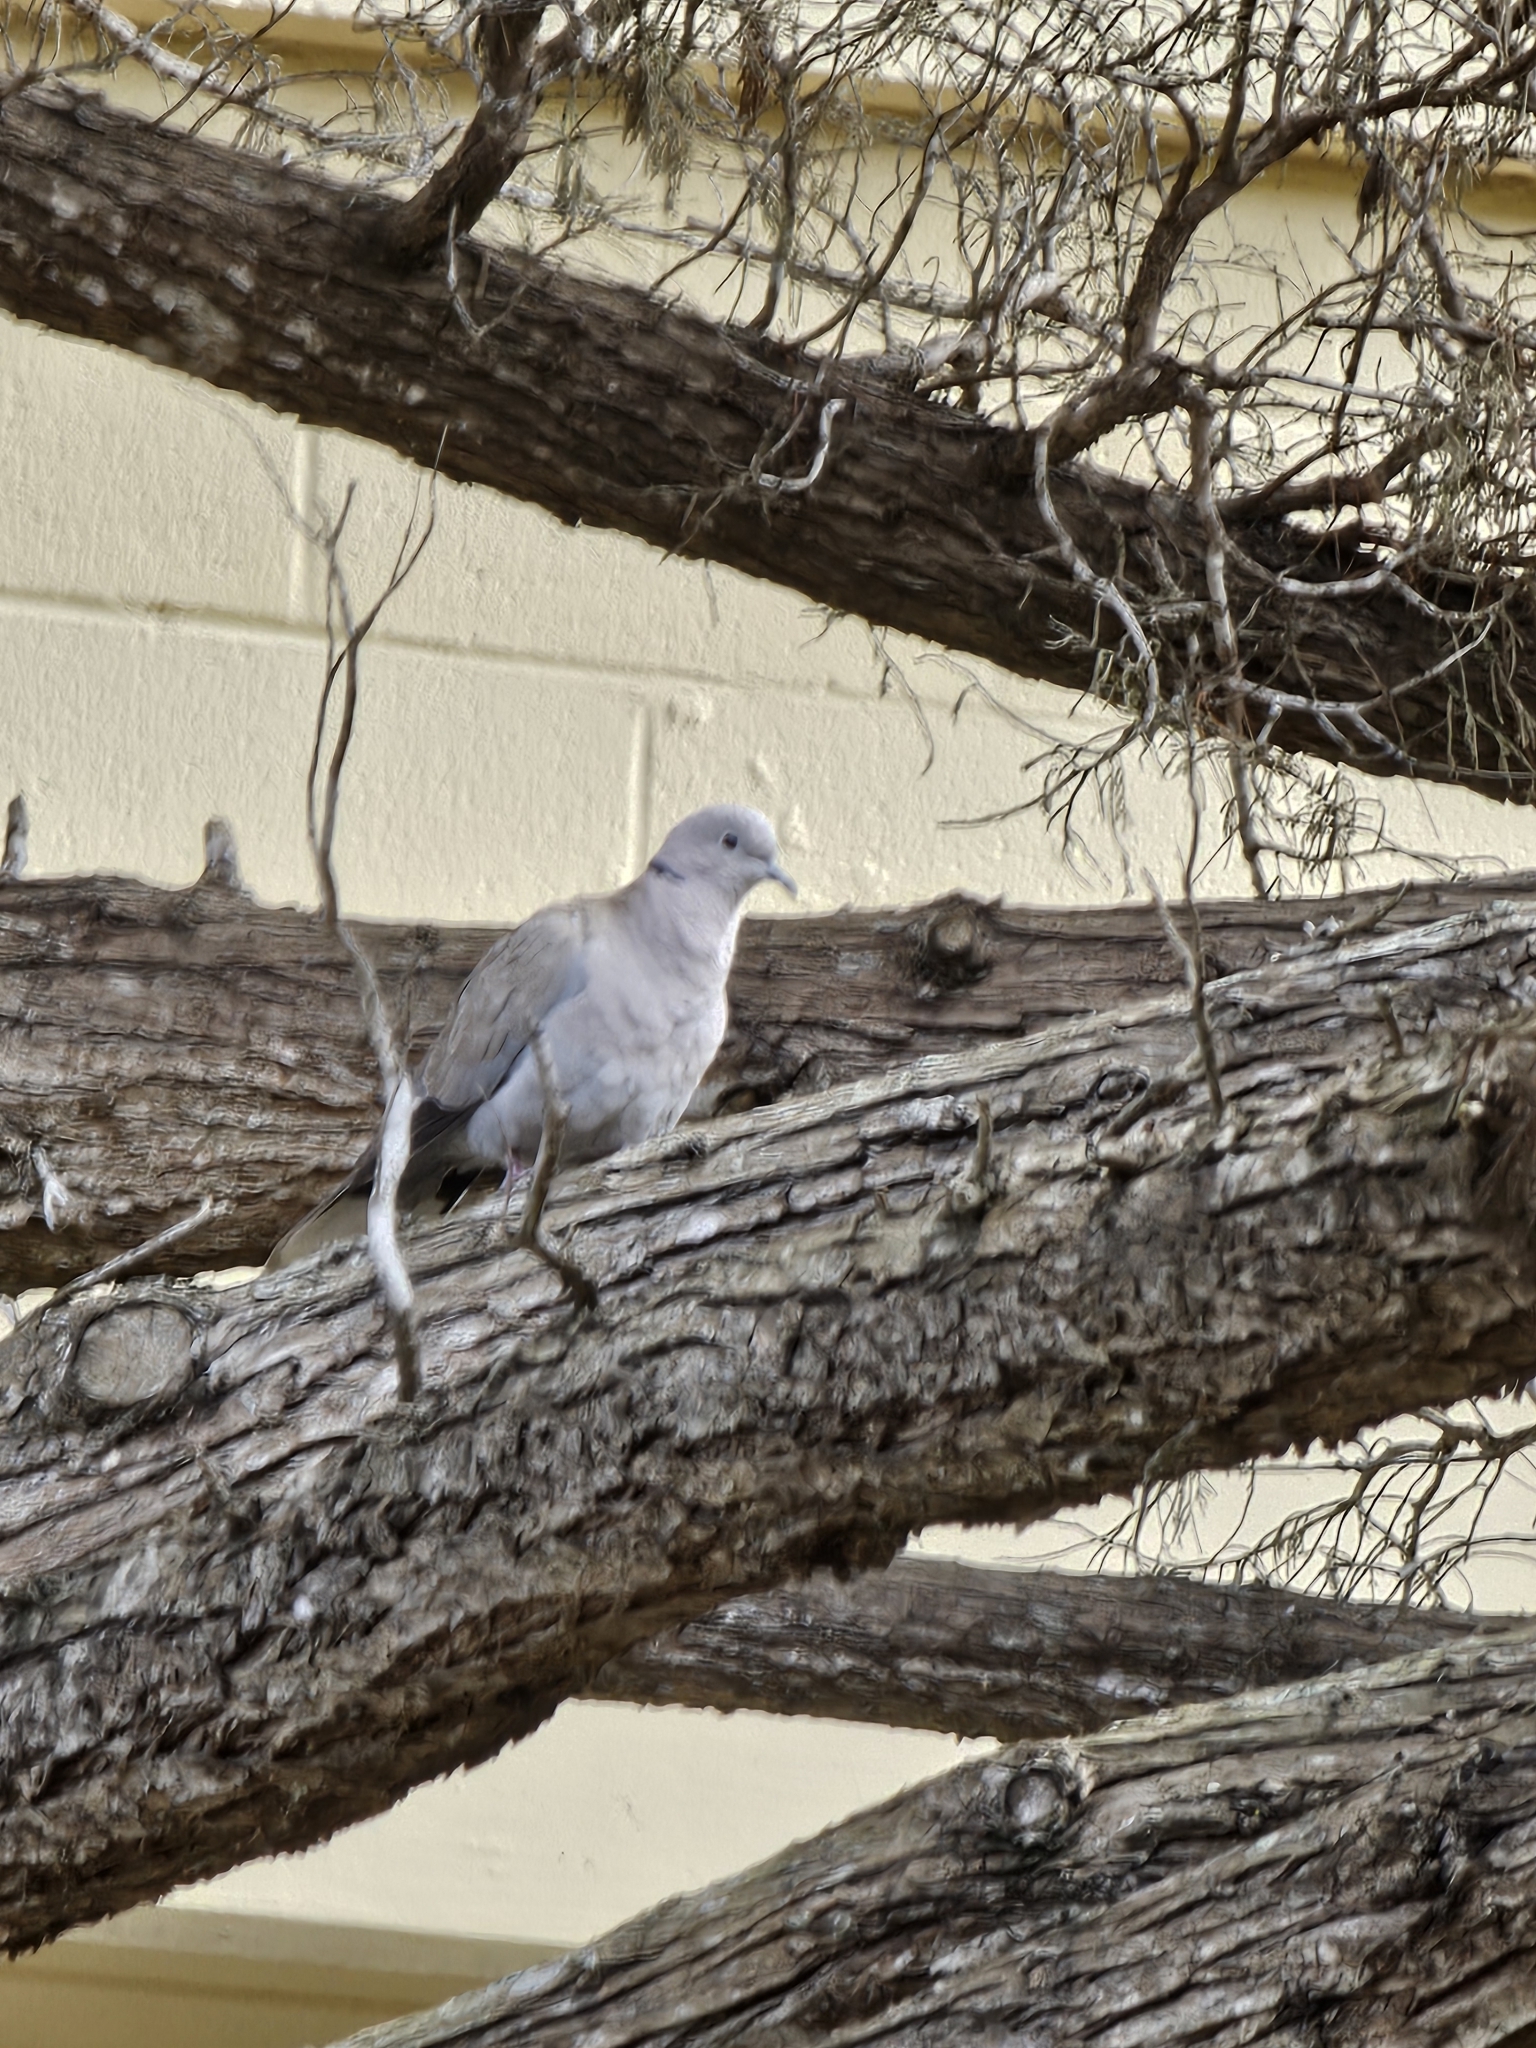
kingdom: Animalia
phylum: Chordata
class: Aves
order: Columbiformes
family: Columbidae
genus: Streptopelia
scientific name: Streptopelia decaocto
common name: Eurasian collared dove
